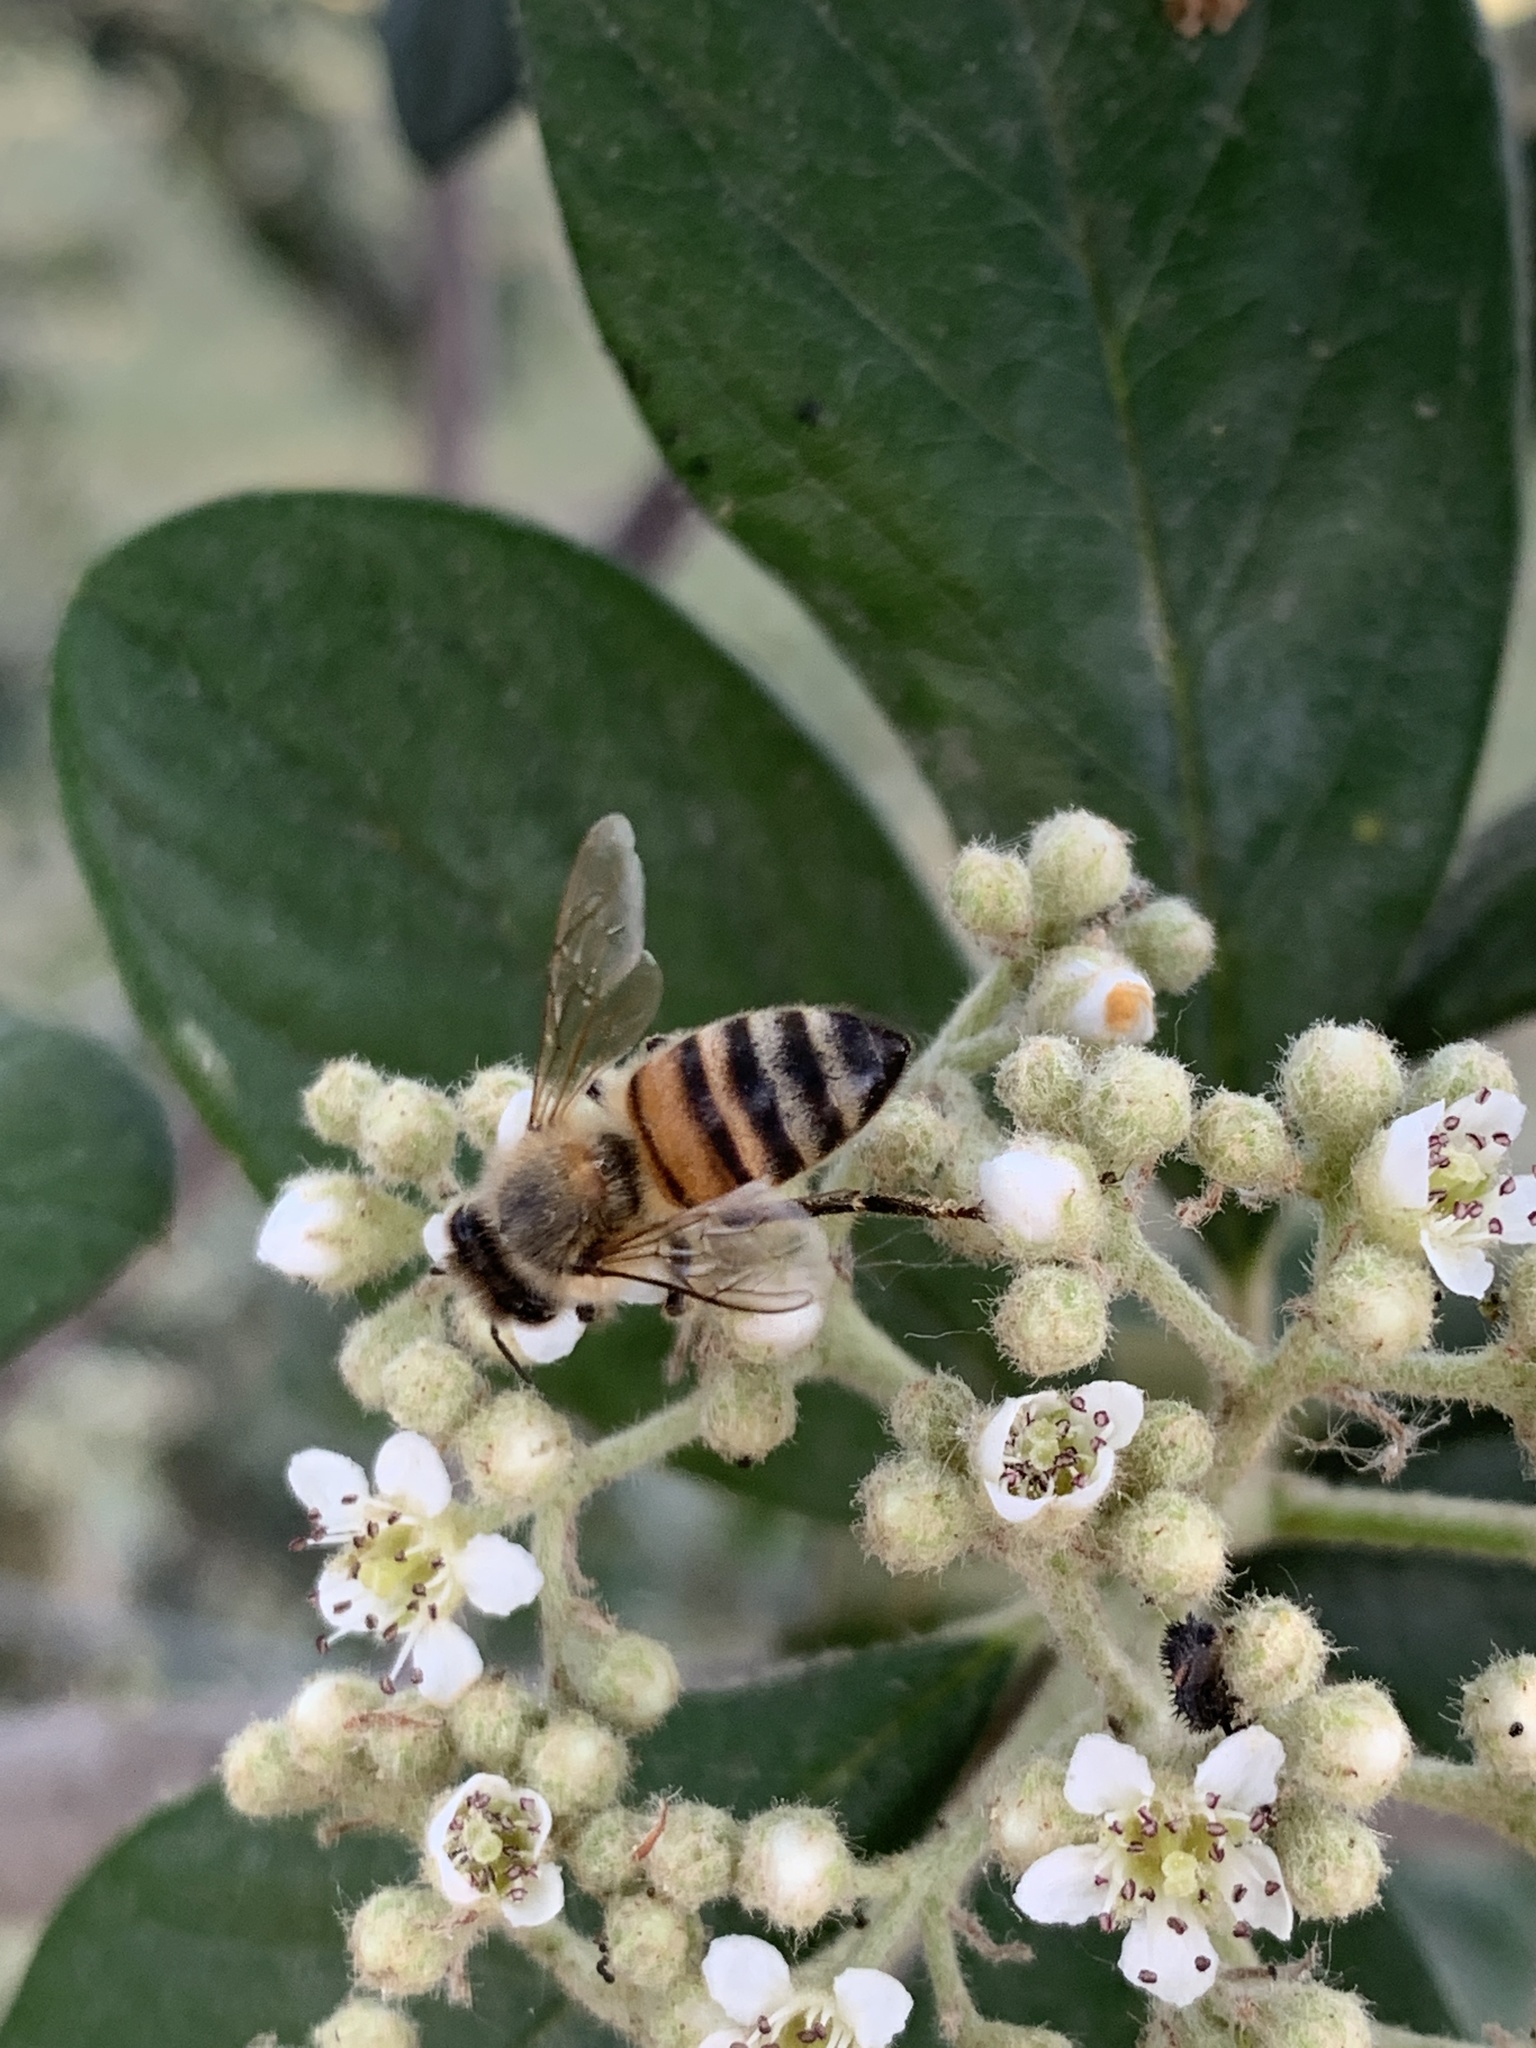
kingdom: Animalia
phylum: Arthropoda
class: Insecta
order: Hymenoptera
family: Apidae
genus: Apis
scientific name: Apis mellifera
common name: Honey bee
